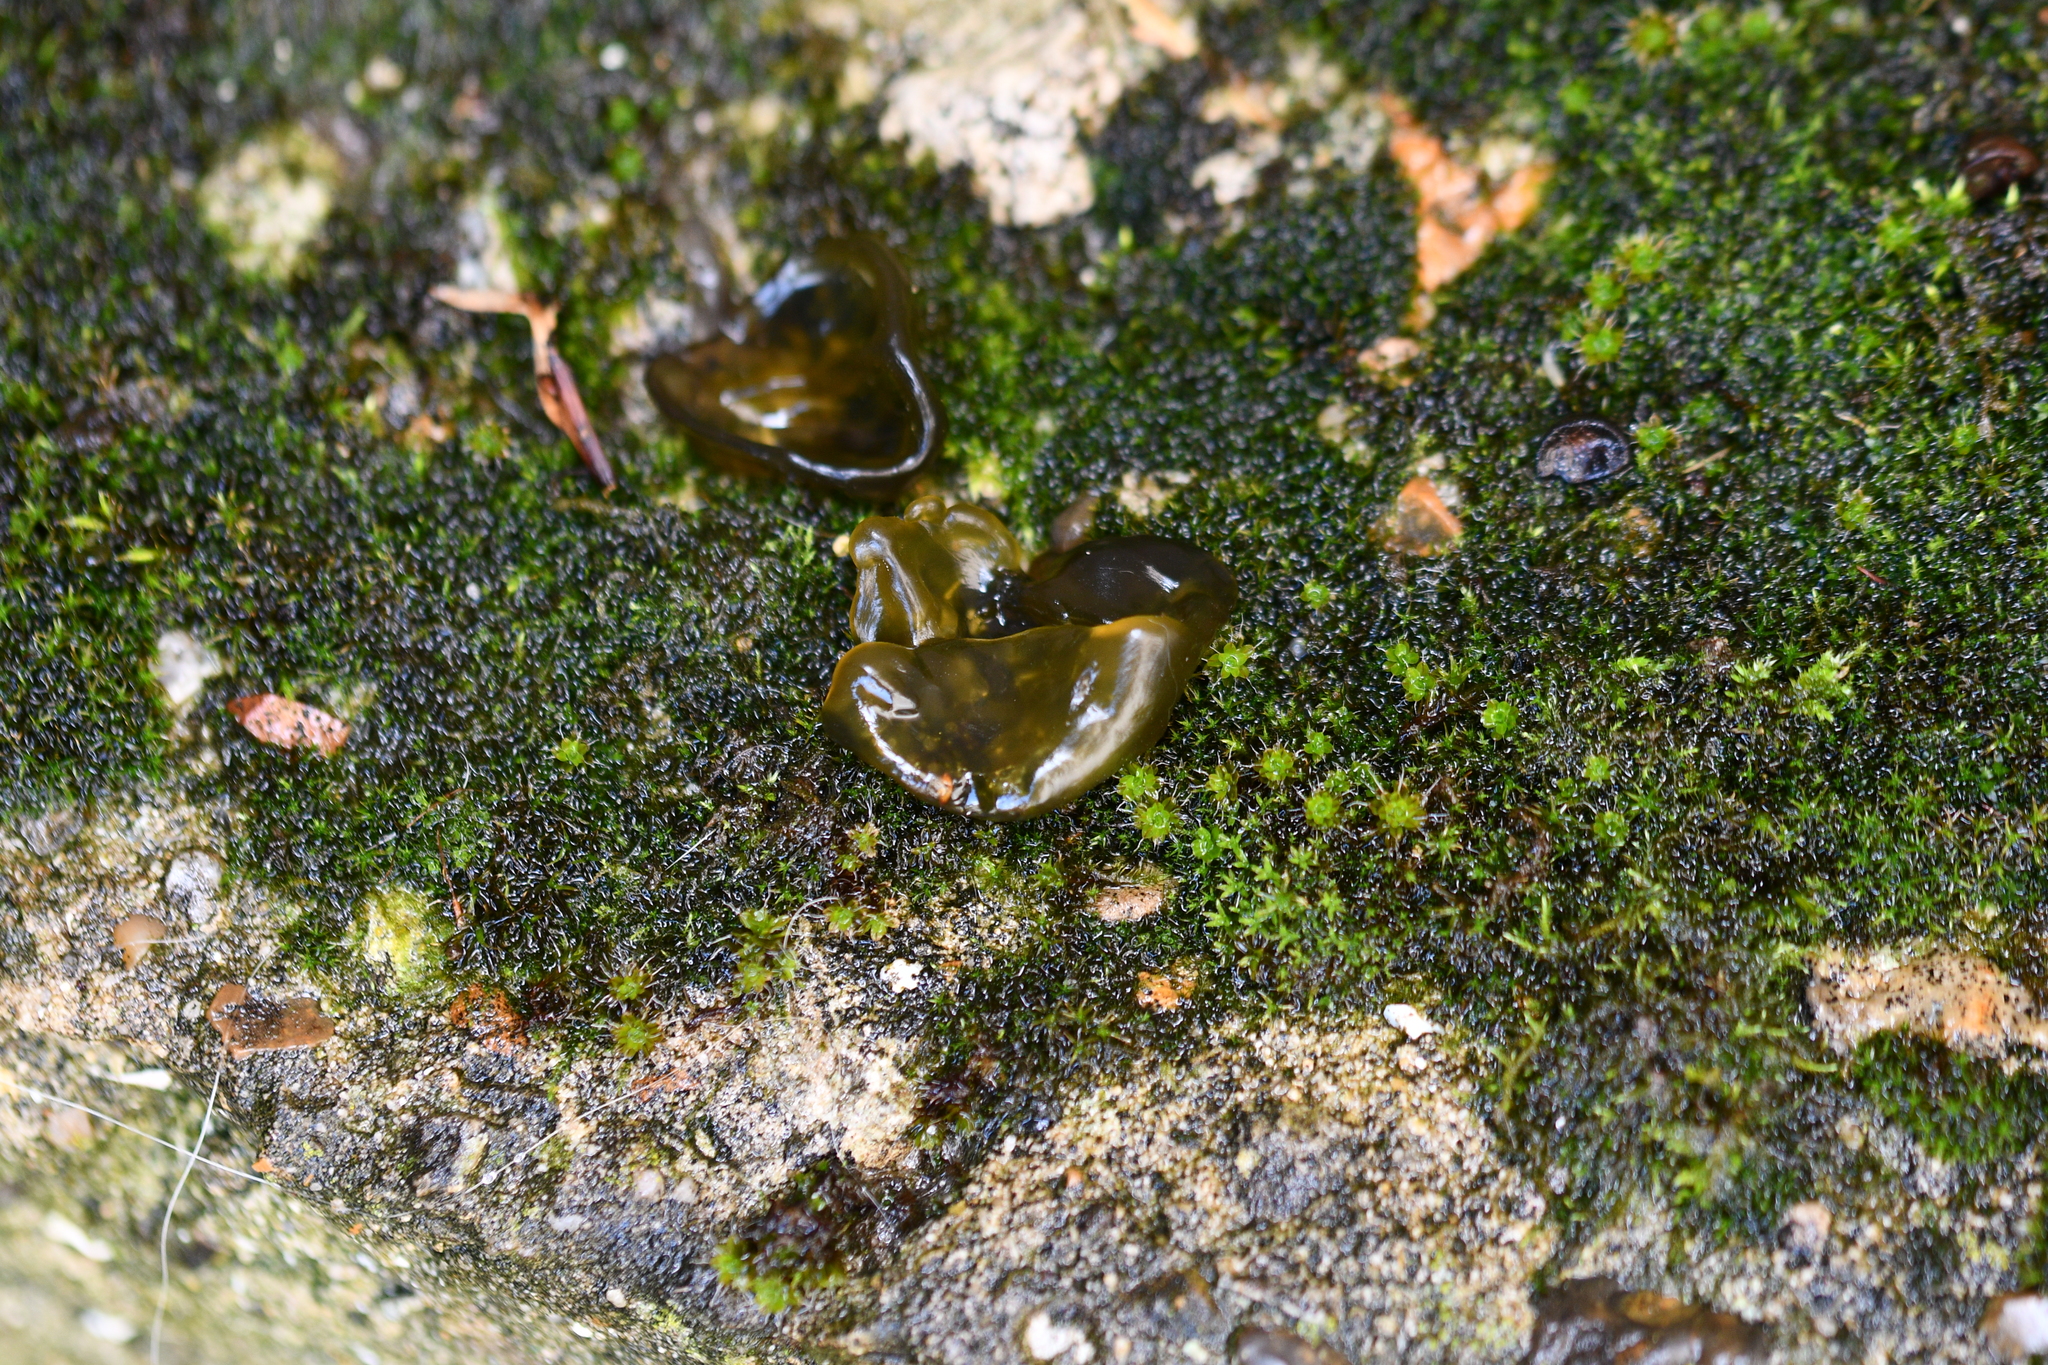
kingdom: Bacteria
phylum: Cyanobacteria
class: Cyanobacteriia
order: Cyanobacteriales
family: Nostocaceae
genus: Nostoc
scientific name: Nostoc commune
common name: Star jelly
